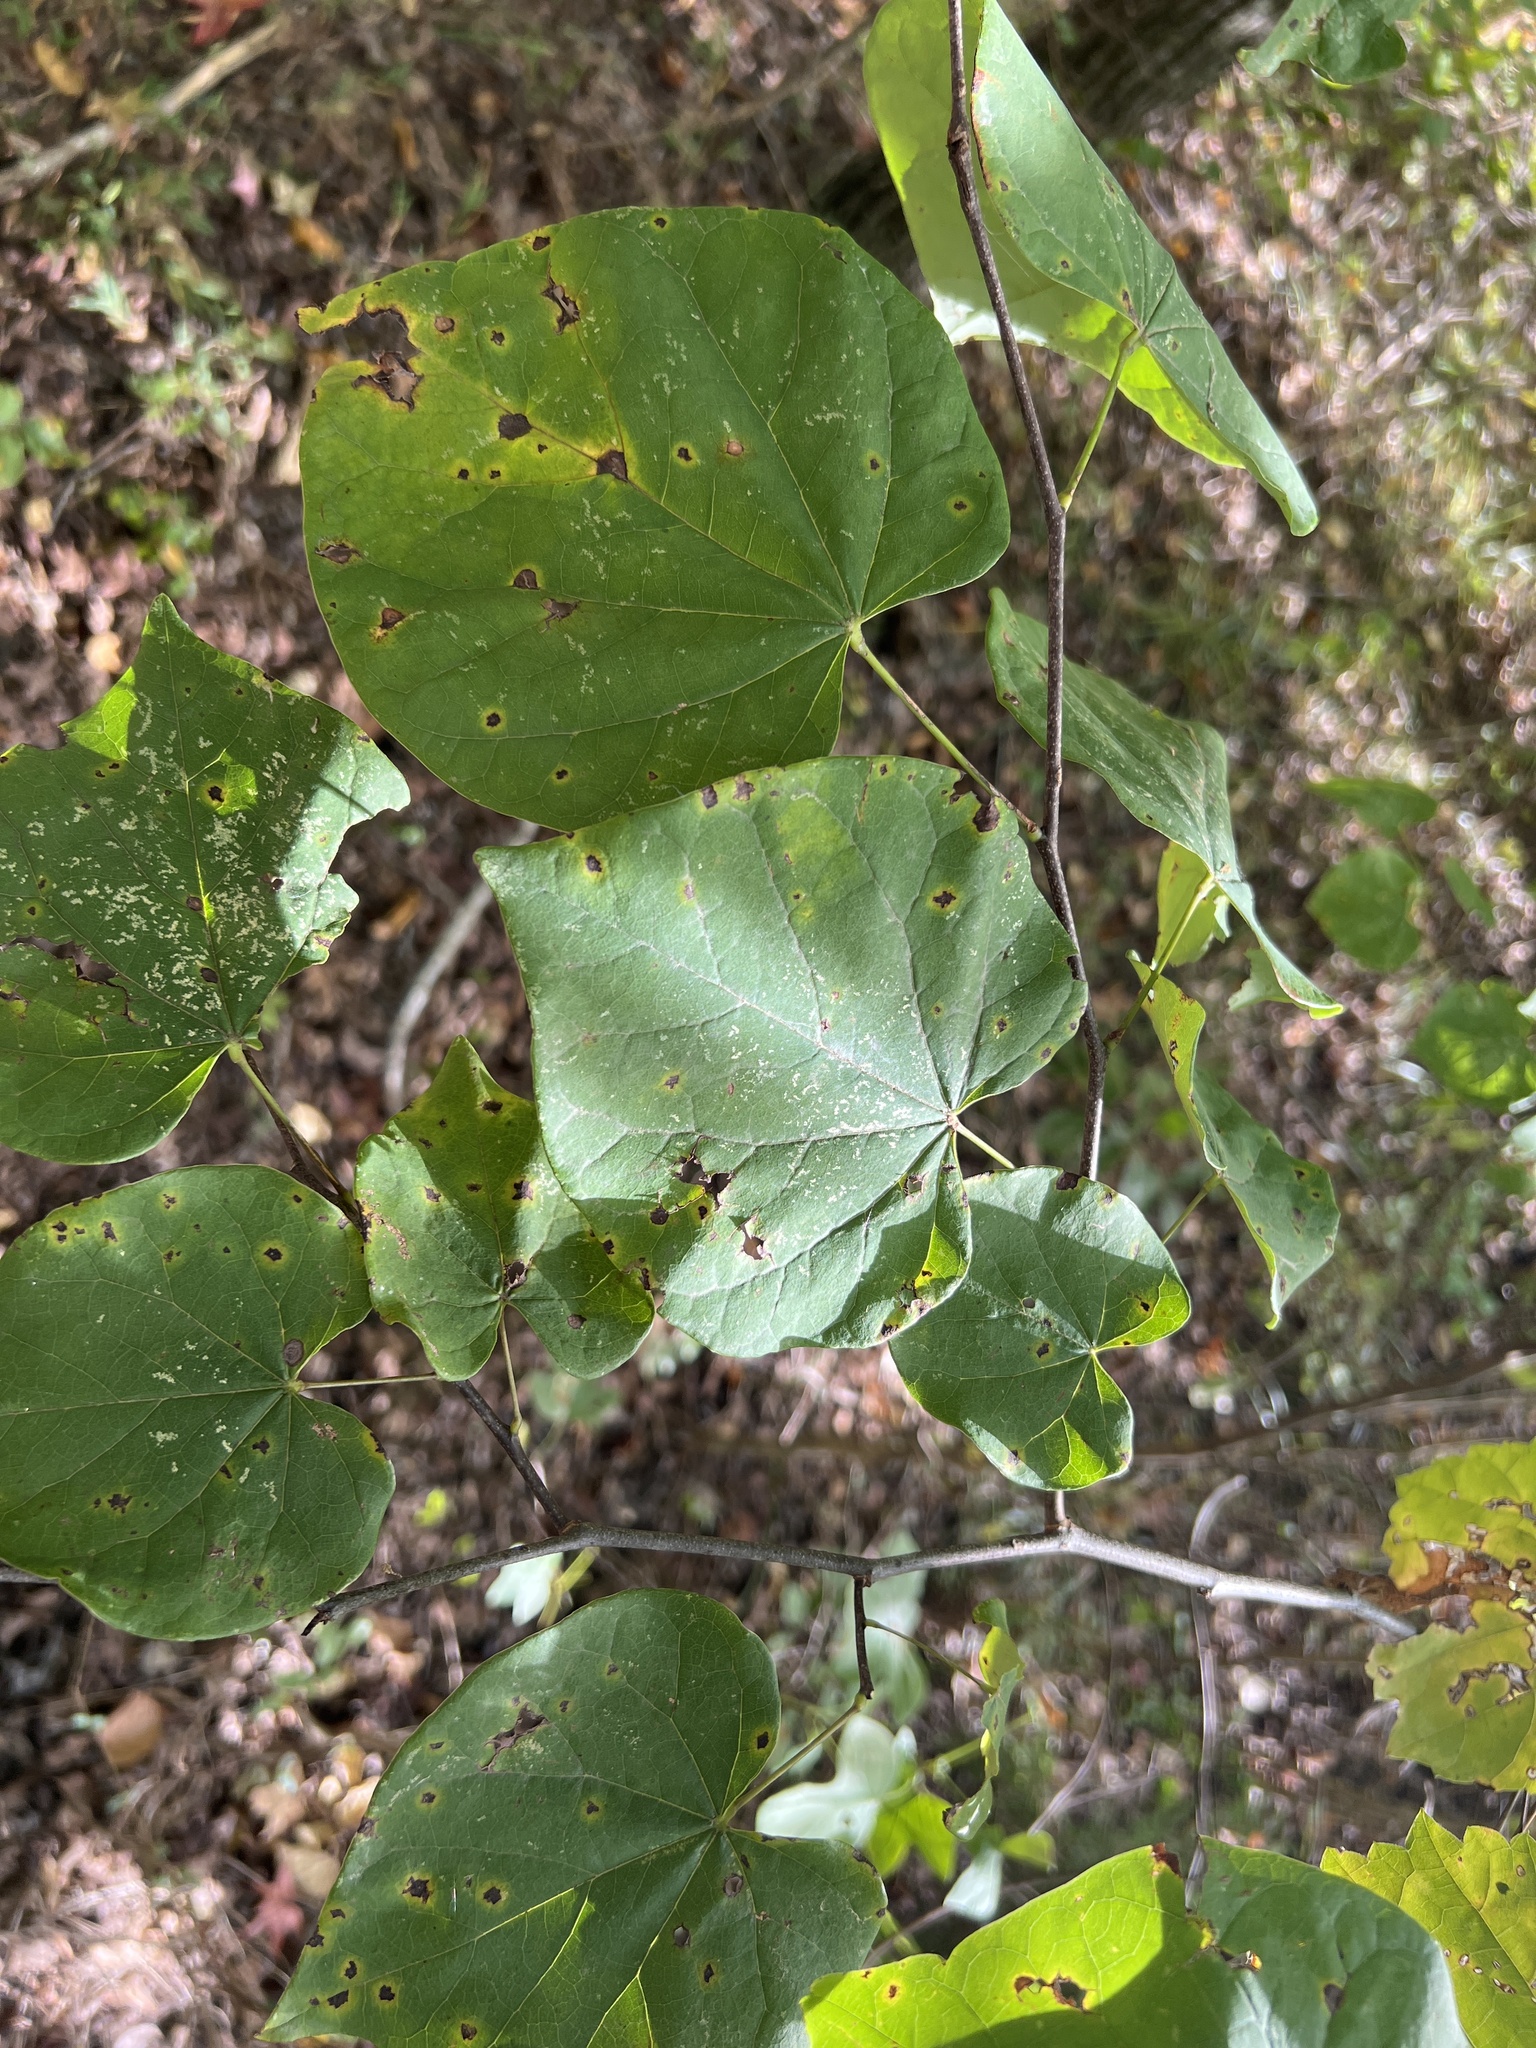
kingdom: Plantae
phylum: Tracheophyta
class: Magnoliopsida
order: Fabales
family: Fabaceae
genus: Cercis
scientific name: Cercis canadensis
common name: Eastern redbud
